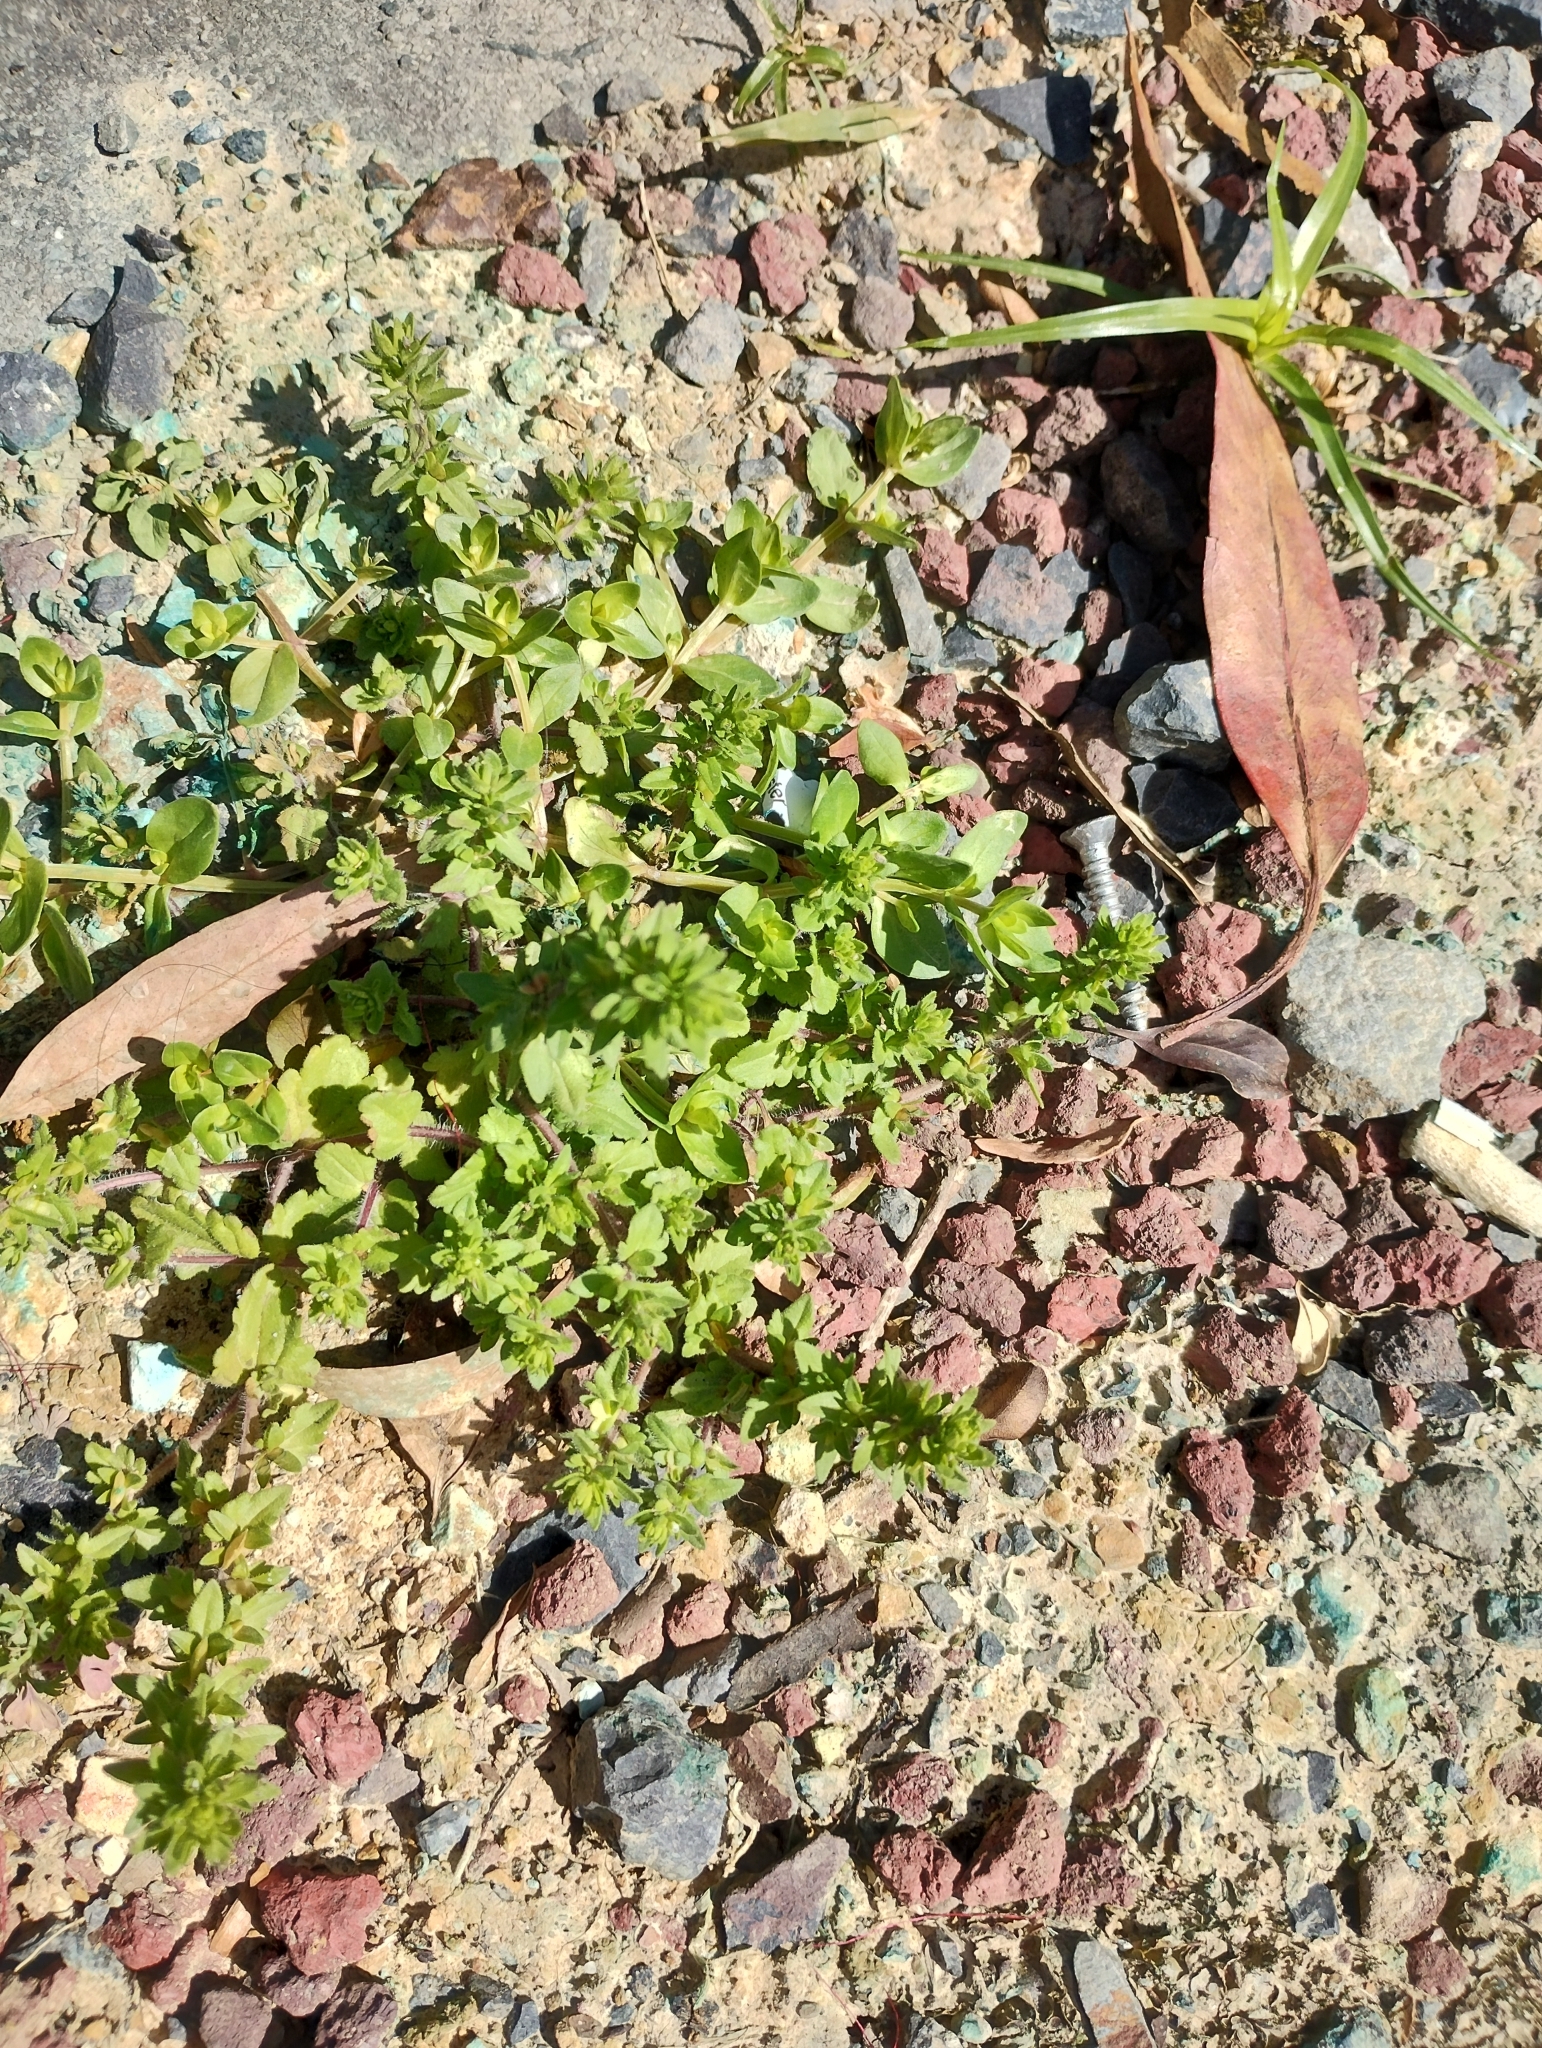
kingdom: Plantae
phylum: Tracheophyta
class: Magnoliopsida
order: Lamiales
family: Plantaginaceae
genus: Veronica
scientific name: Veronica arvensis
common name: Corn speedwell
